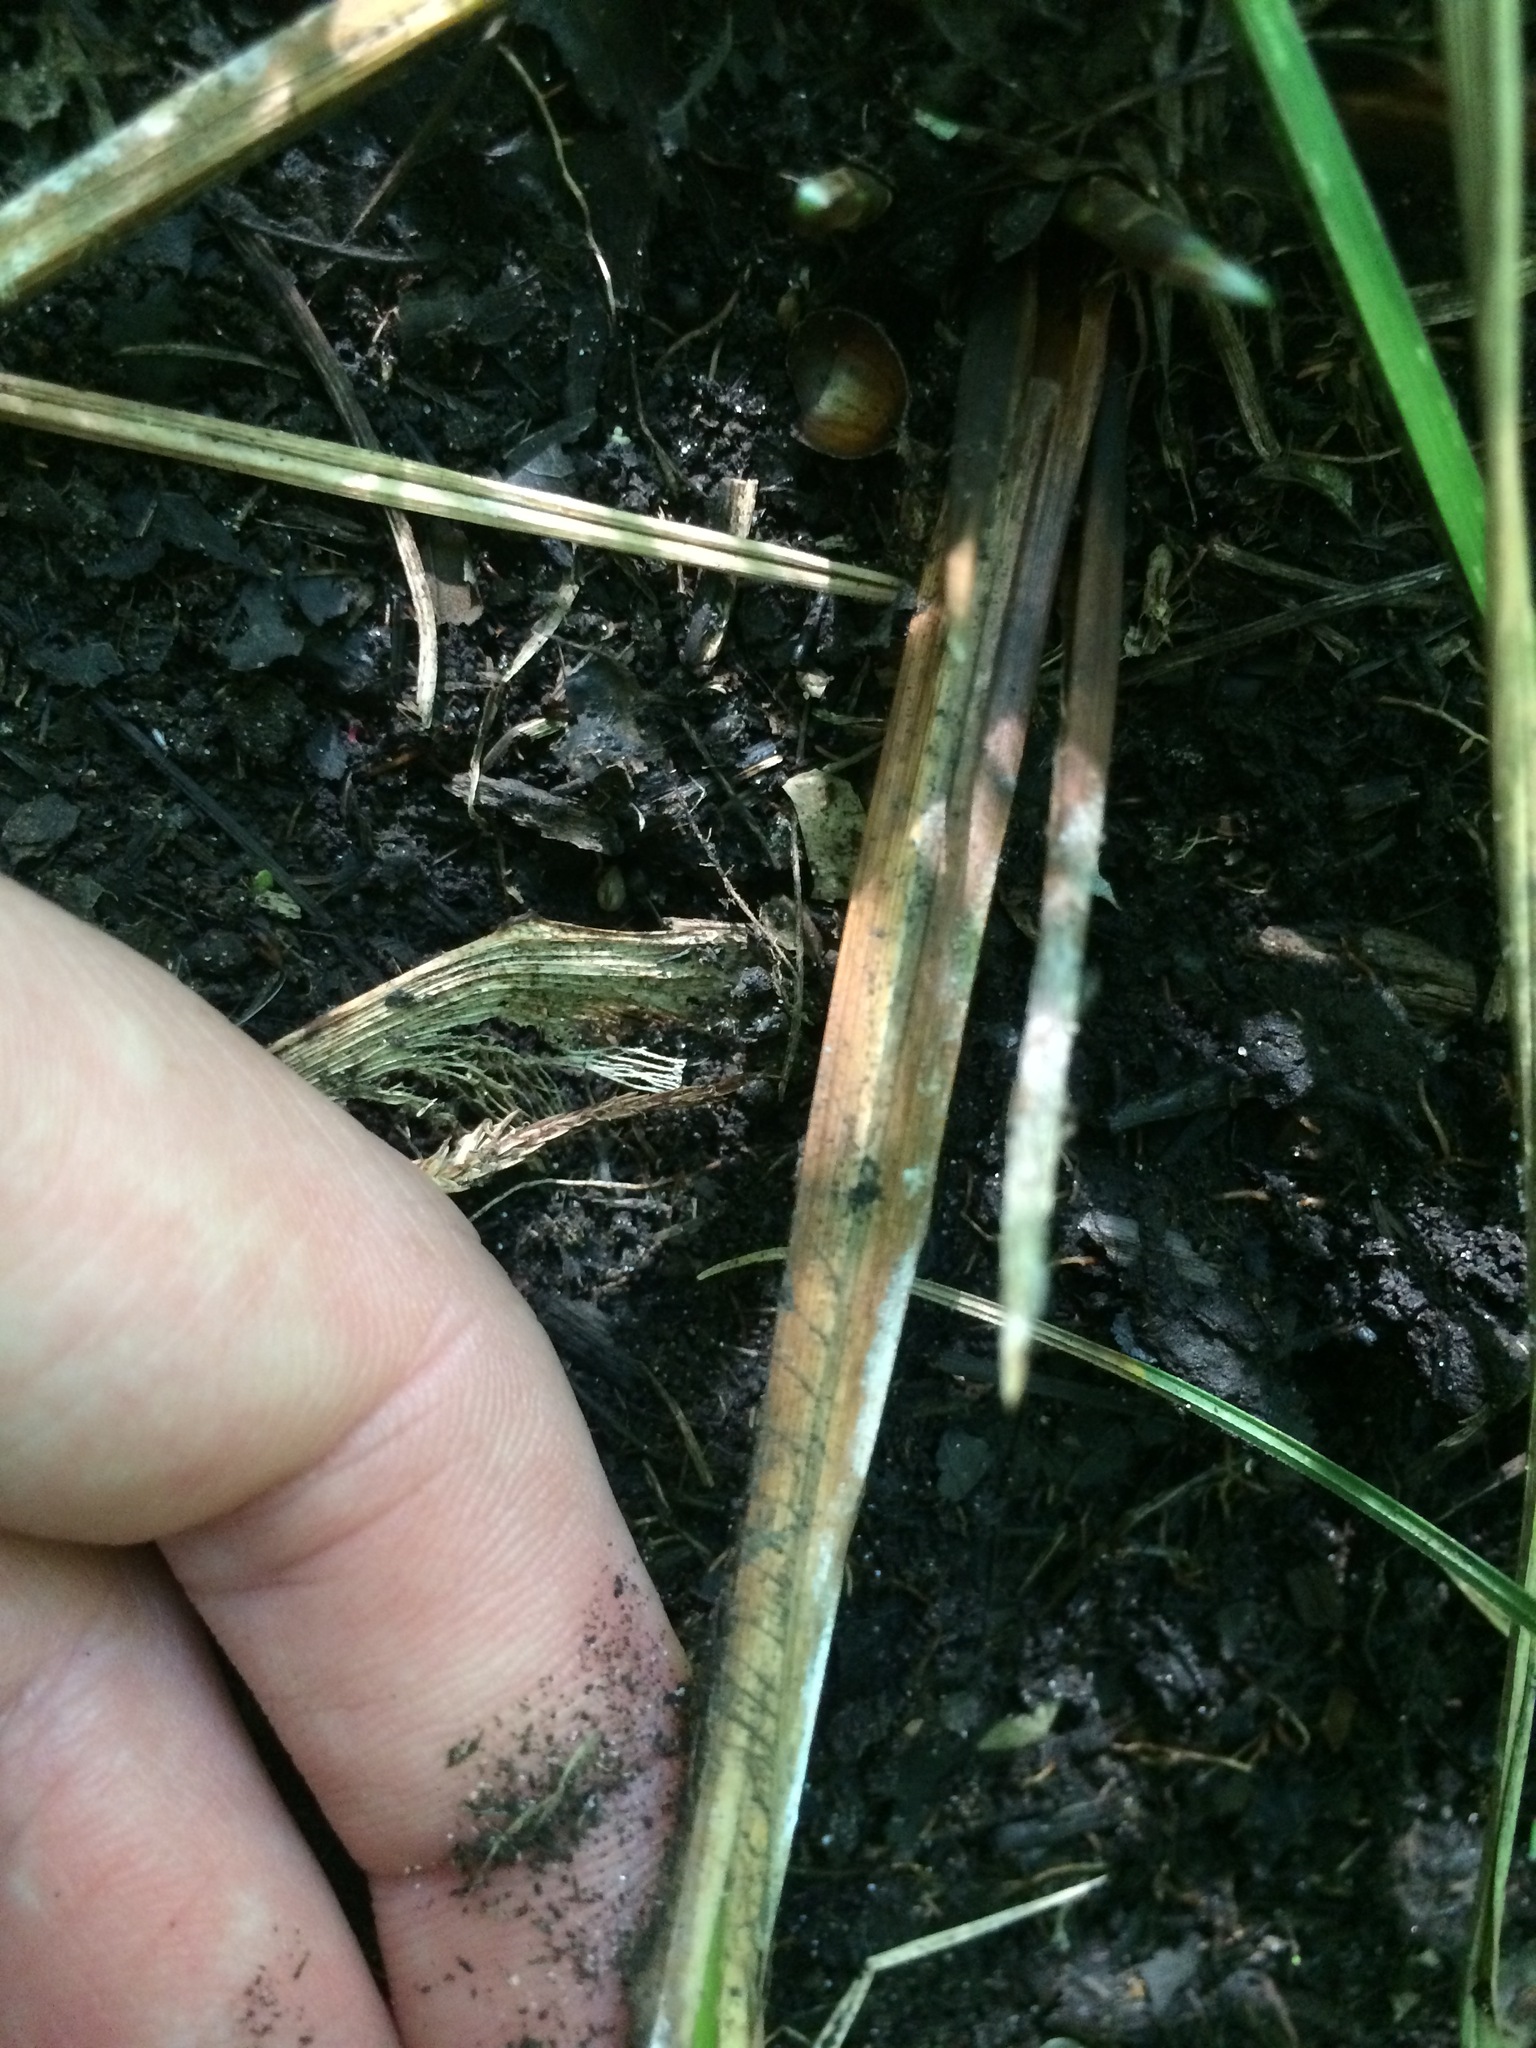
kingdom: Plantae
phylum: Tracheophyta
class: Liliopsida
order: Poales
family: Cyperaceae
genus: Carex
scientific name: Carex stricta
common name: Hummock sedge
